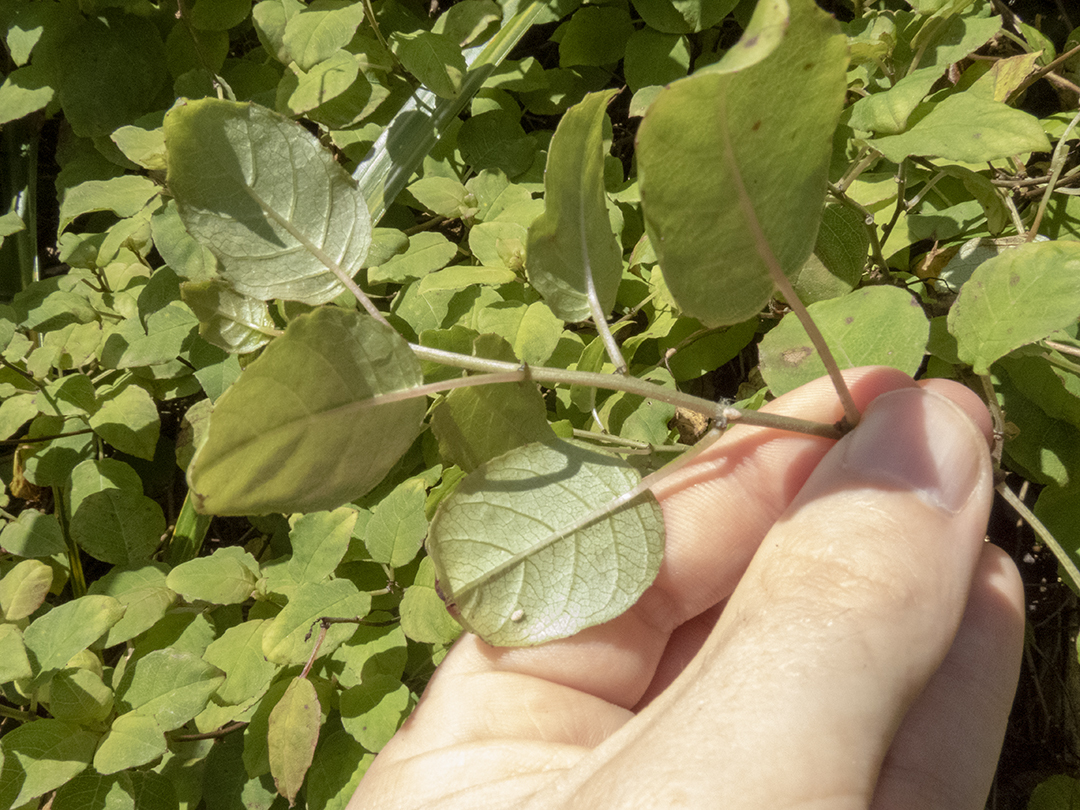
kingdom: Plantae
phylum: Tracheophyta
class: Magnoliopsida
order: Myrtales
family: Onagraceae
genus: Fuchsia
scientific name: Fuchsia perscandens
